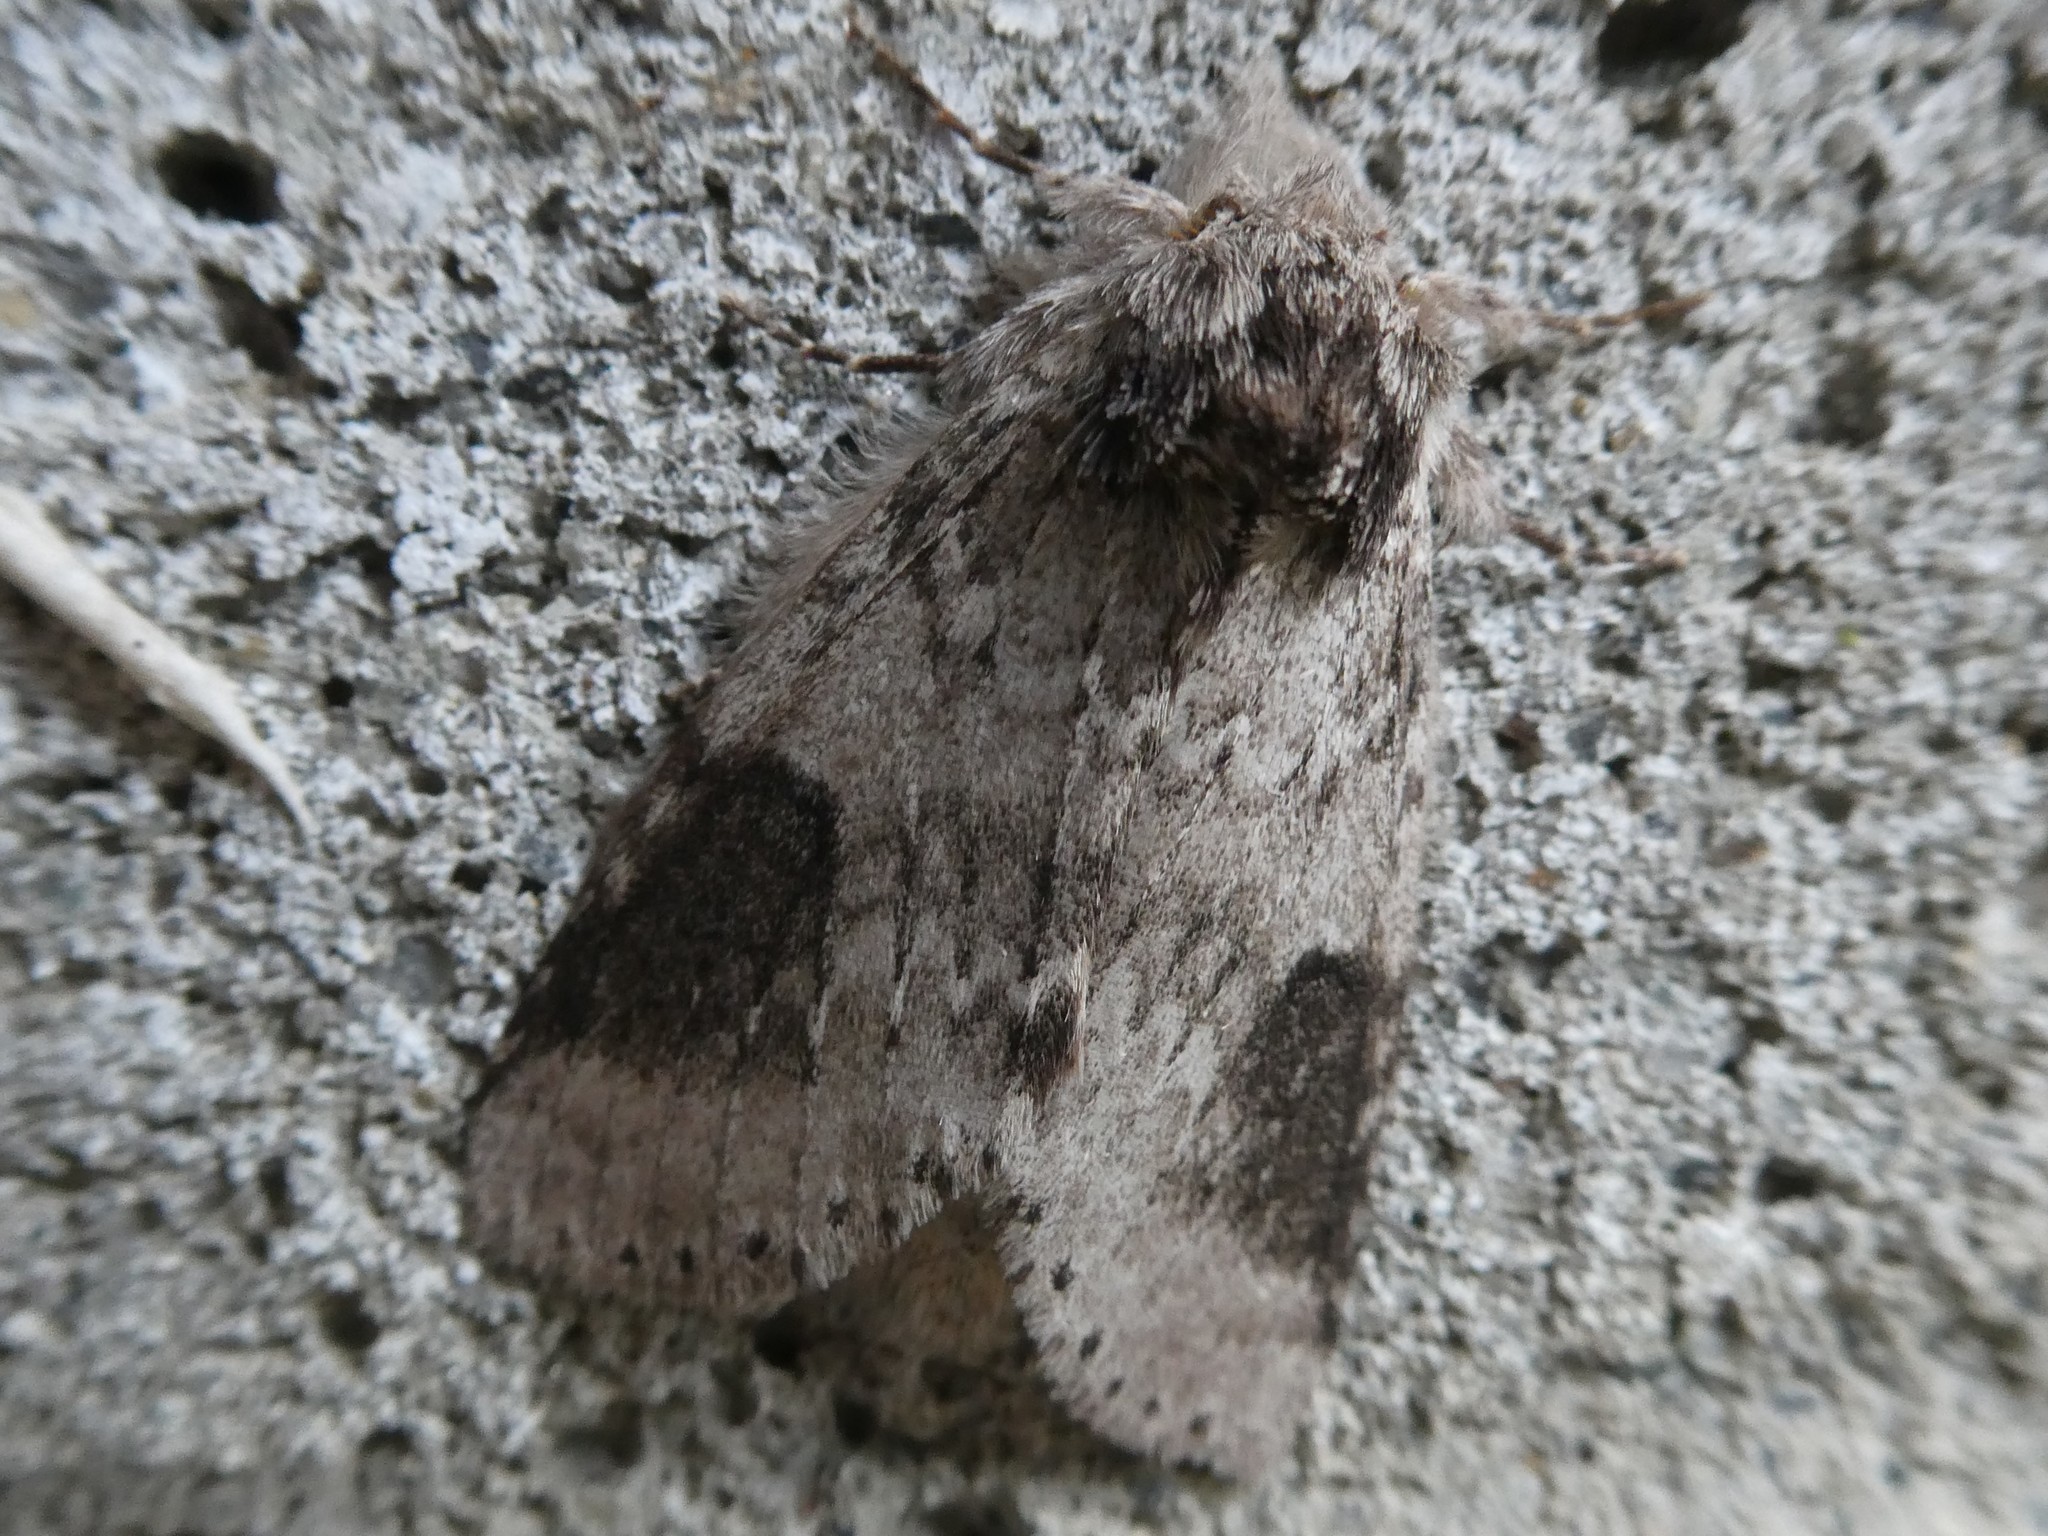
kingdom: Animalia
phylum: Arthropoda
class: Insecta
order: Lepidoptera
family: Notodontidae
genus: Lochmaeus
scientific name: Lochmaeus manteo
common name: Variable oakleaf caterpillar moth
